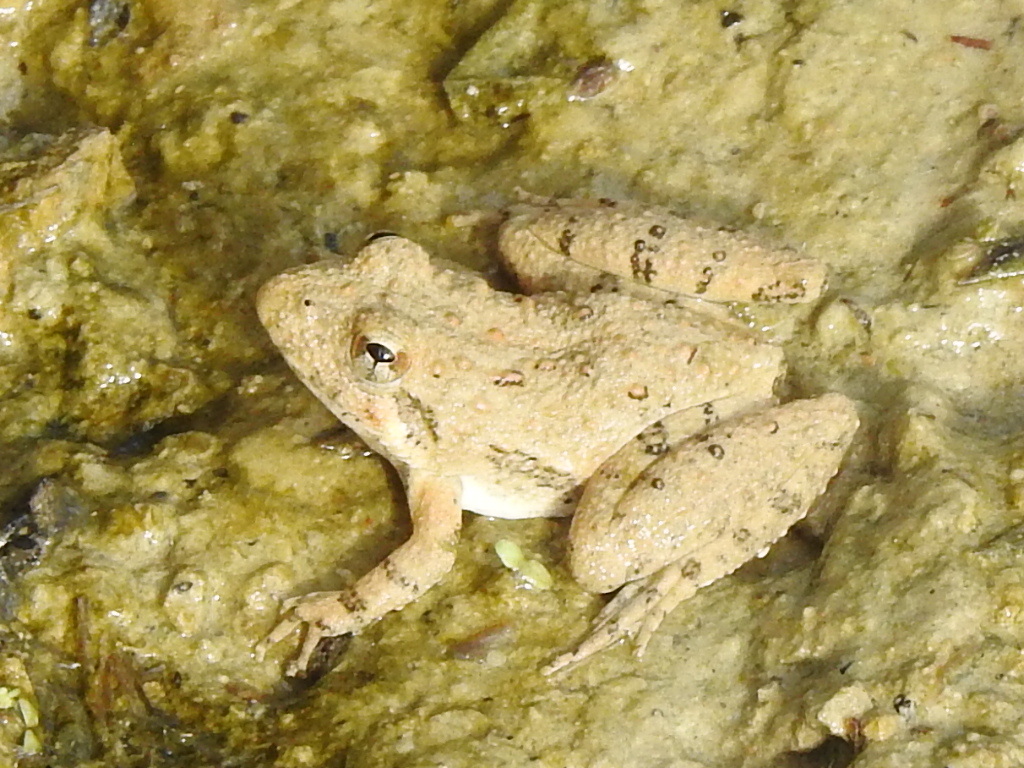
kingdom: Animalia
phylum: Chordata
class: Amphibia
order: Anura
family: Hylidae
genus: Acris
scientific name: Acris blanchardi
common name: Blanchard's cricket frog
